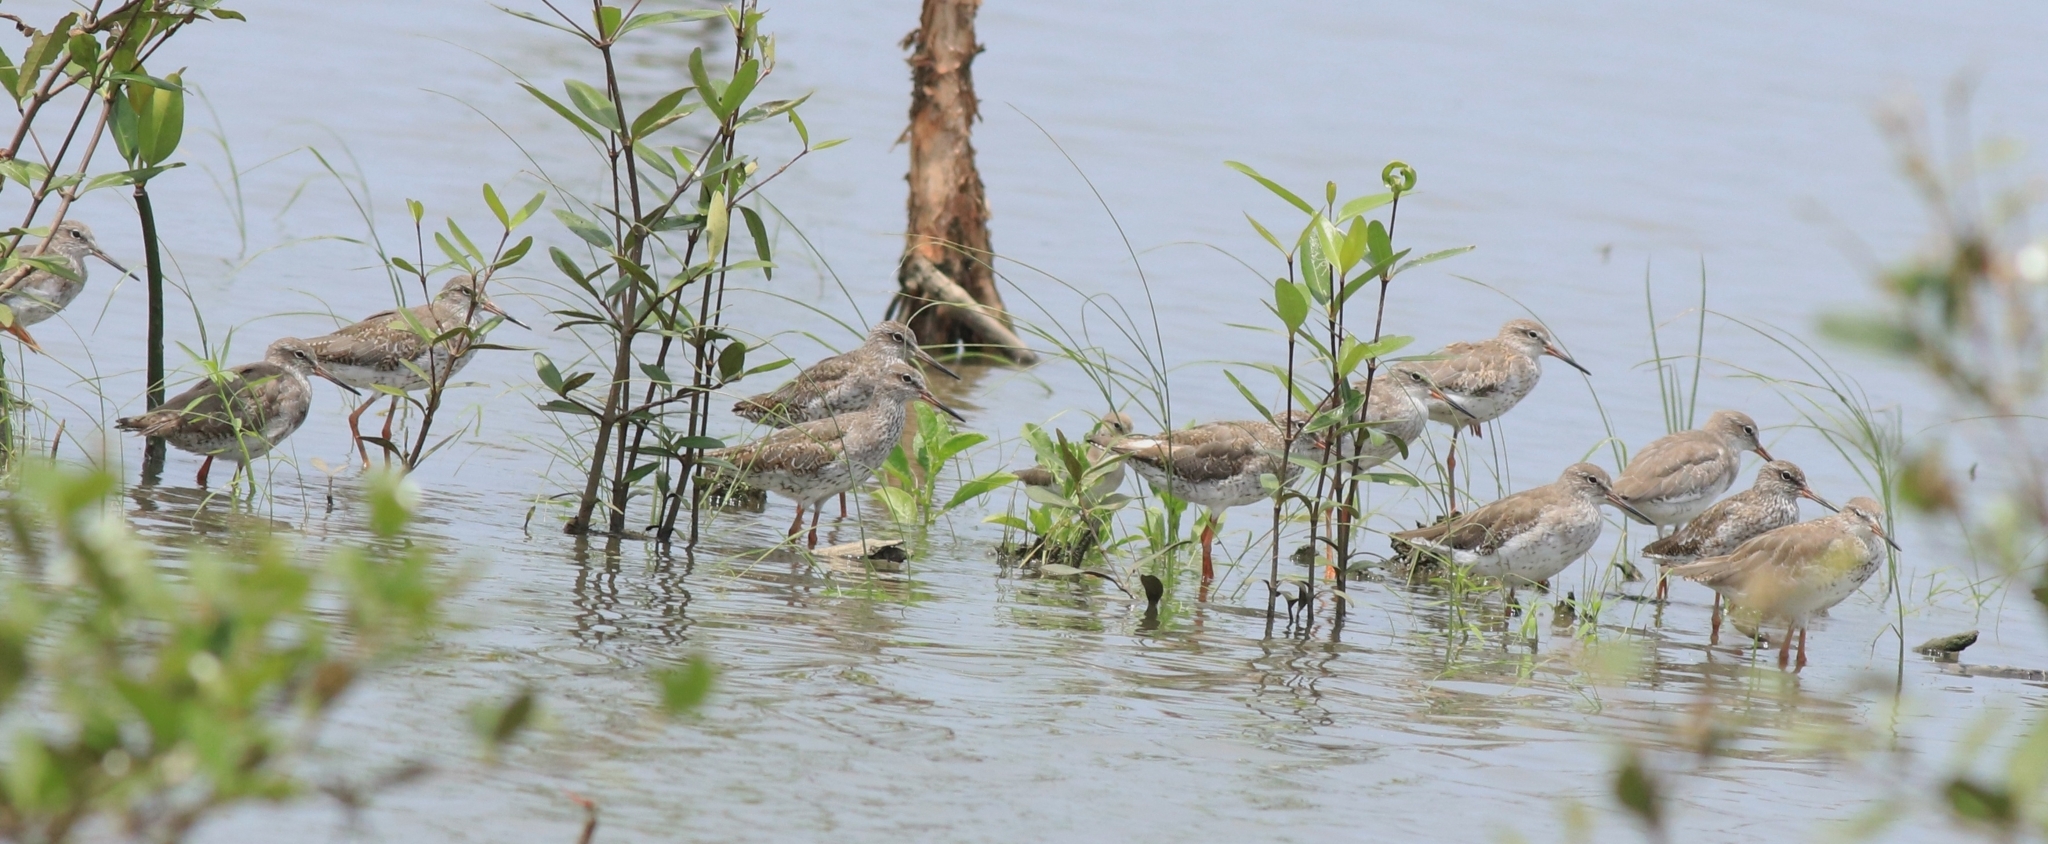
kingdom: Animalia
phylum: Chordata
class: Aves
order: Charadriiformes
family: Scolopacidae
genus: Tringa
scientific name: Tringa totanus
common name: Common redshank
